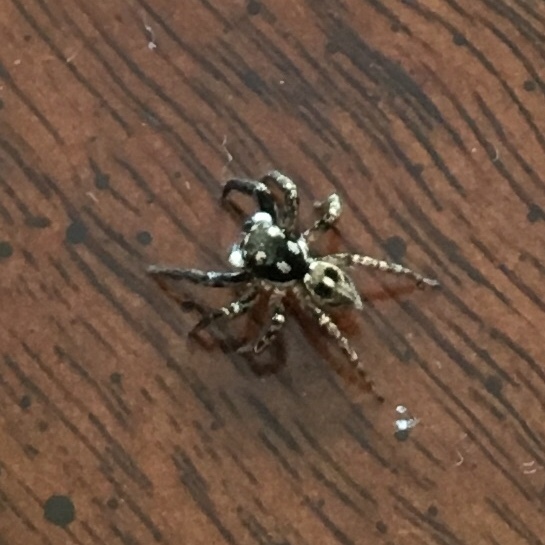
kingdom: Animalia
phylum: Arthropoda
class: Arachnida
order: Araneae
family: Salticidae
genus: Anasaitis
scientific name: Anasaitis canosa
